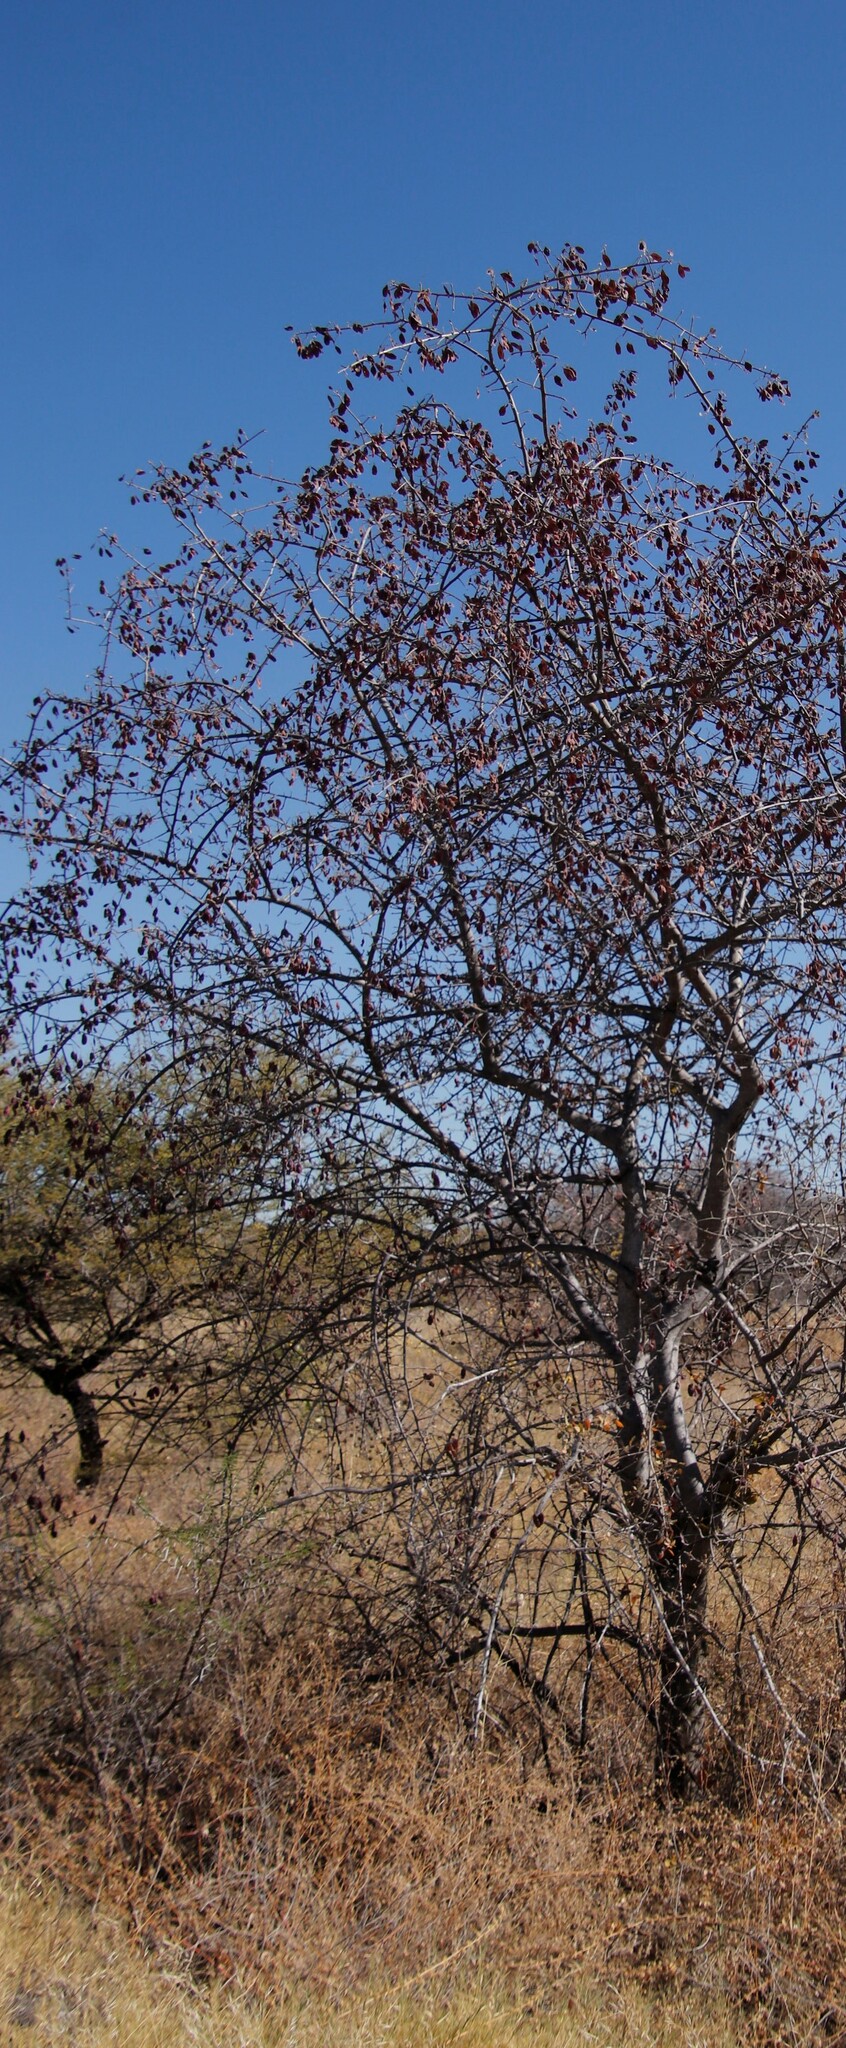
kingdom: Plantae
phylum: Tracheophyta
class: Magnoliopsida
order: Myrtales
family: Combretaceae
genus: Terminalia
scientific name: Terminalia prunioides
